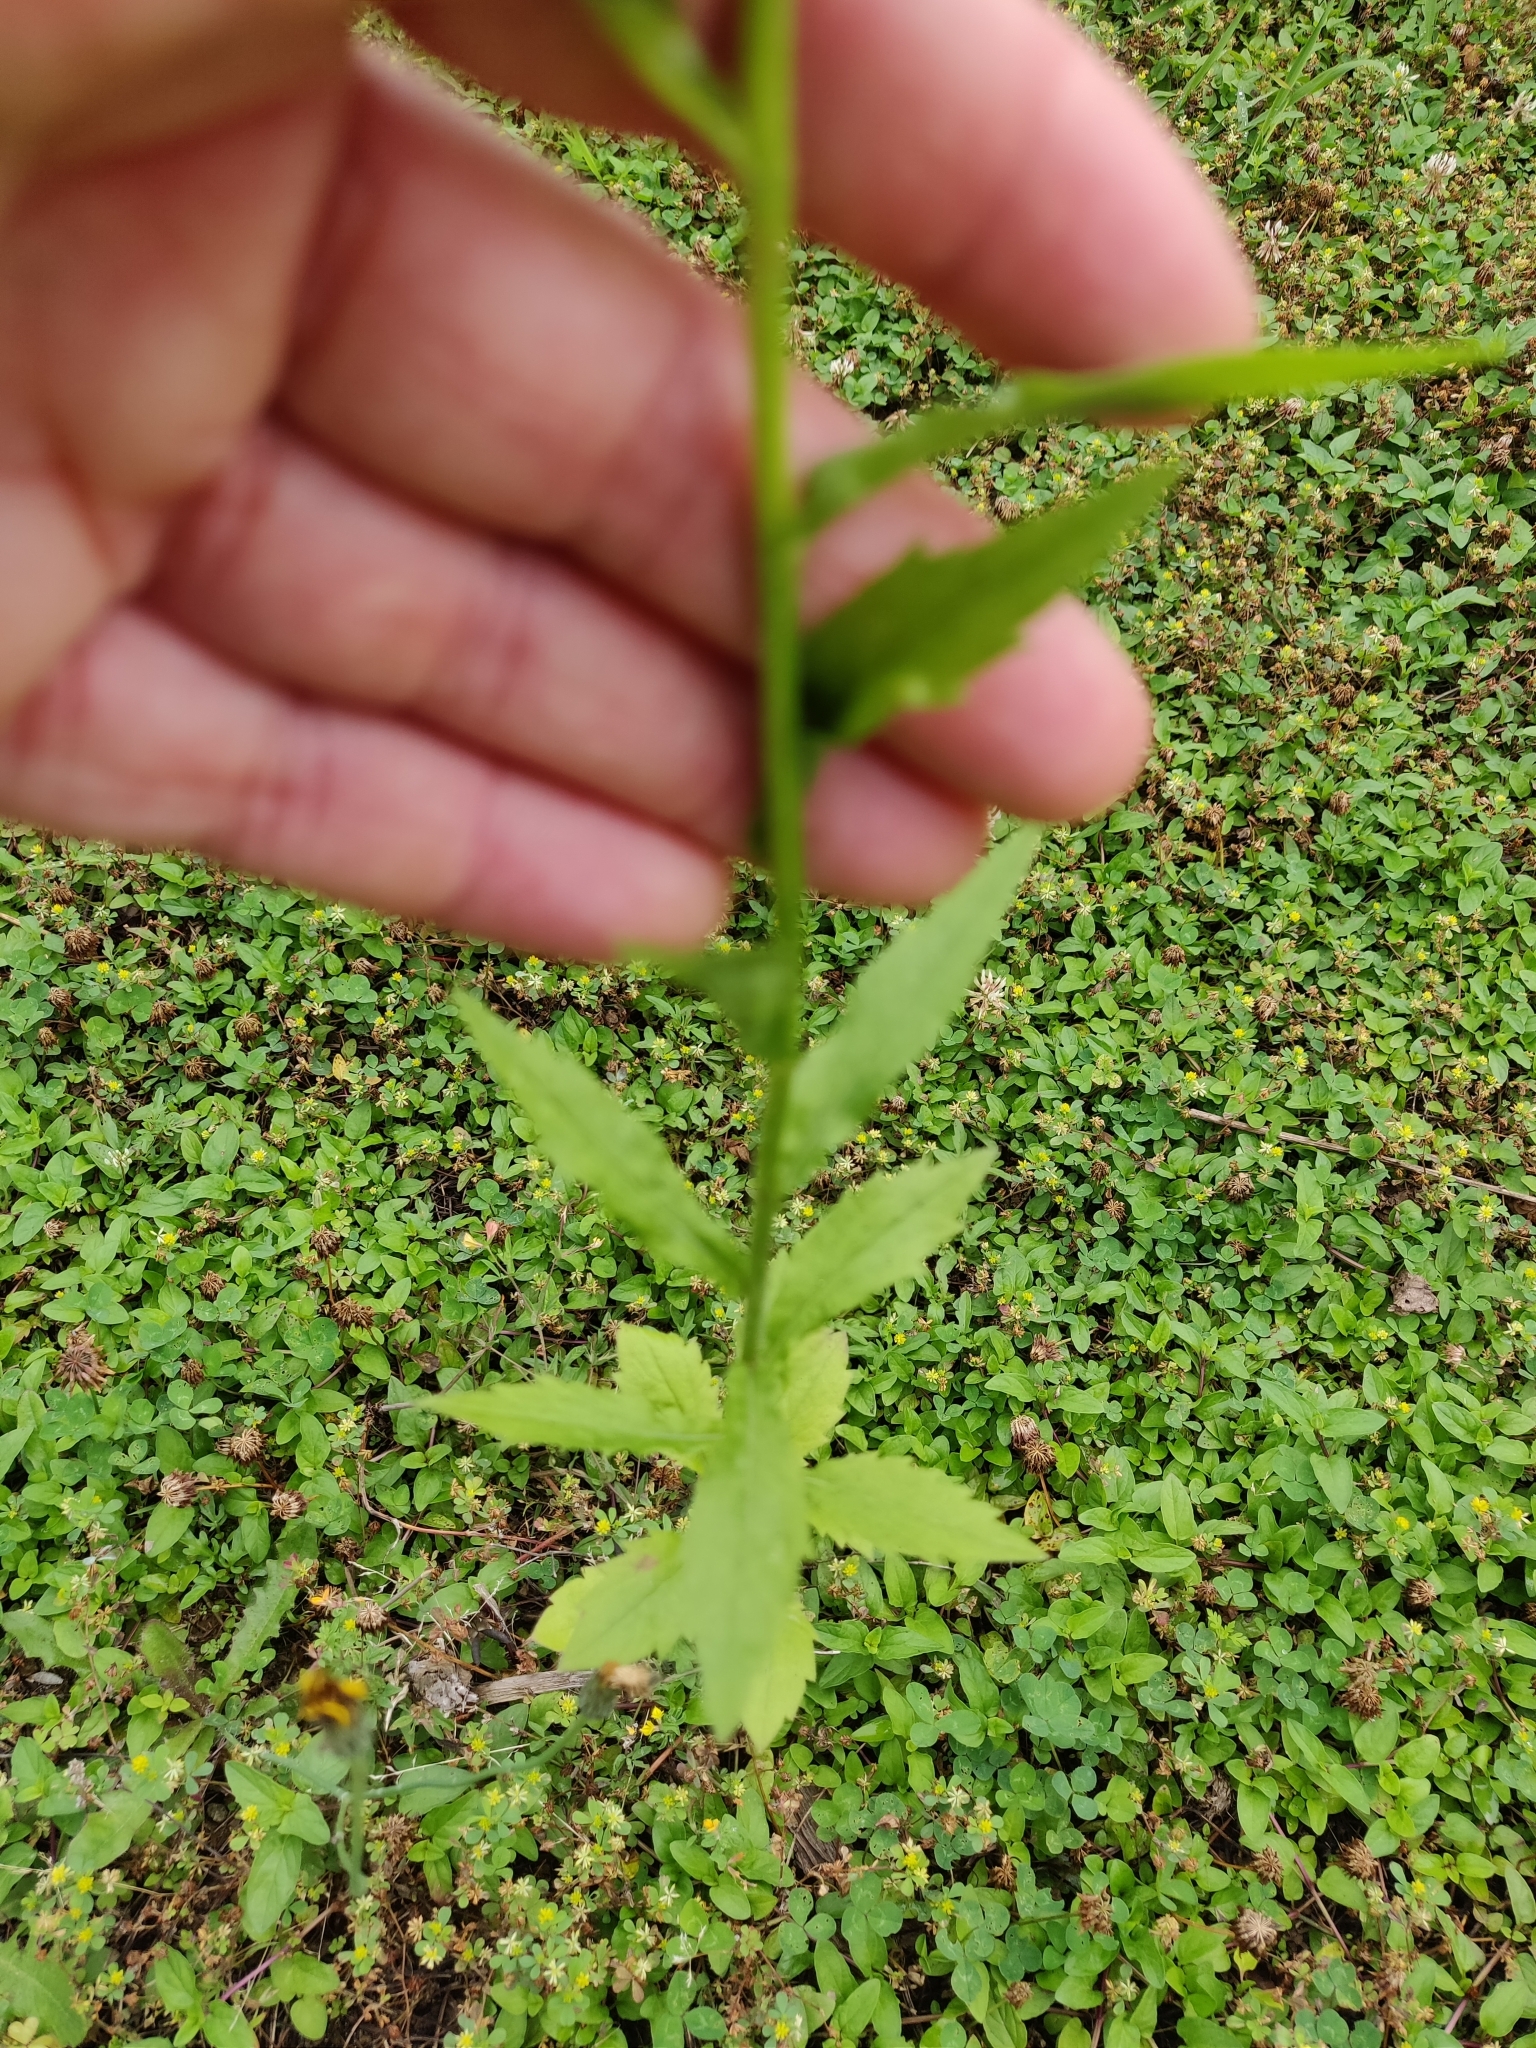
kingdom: Plantae
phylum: Tracheophyta
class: Magnoliopsida
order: Asterales
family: Asteraceae
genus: Erigeron
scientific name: Erigeron annuus
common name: Tall fleabane
